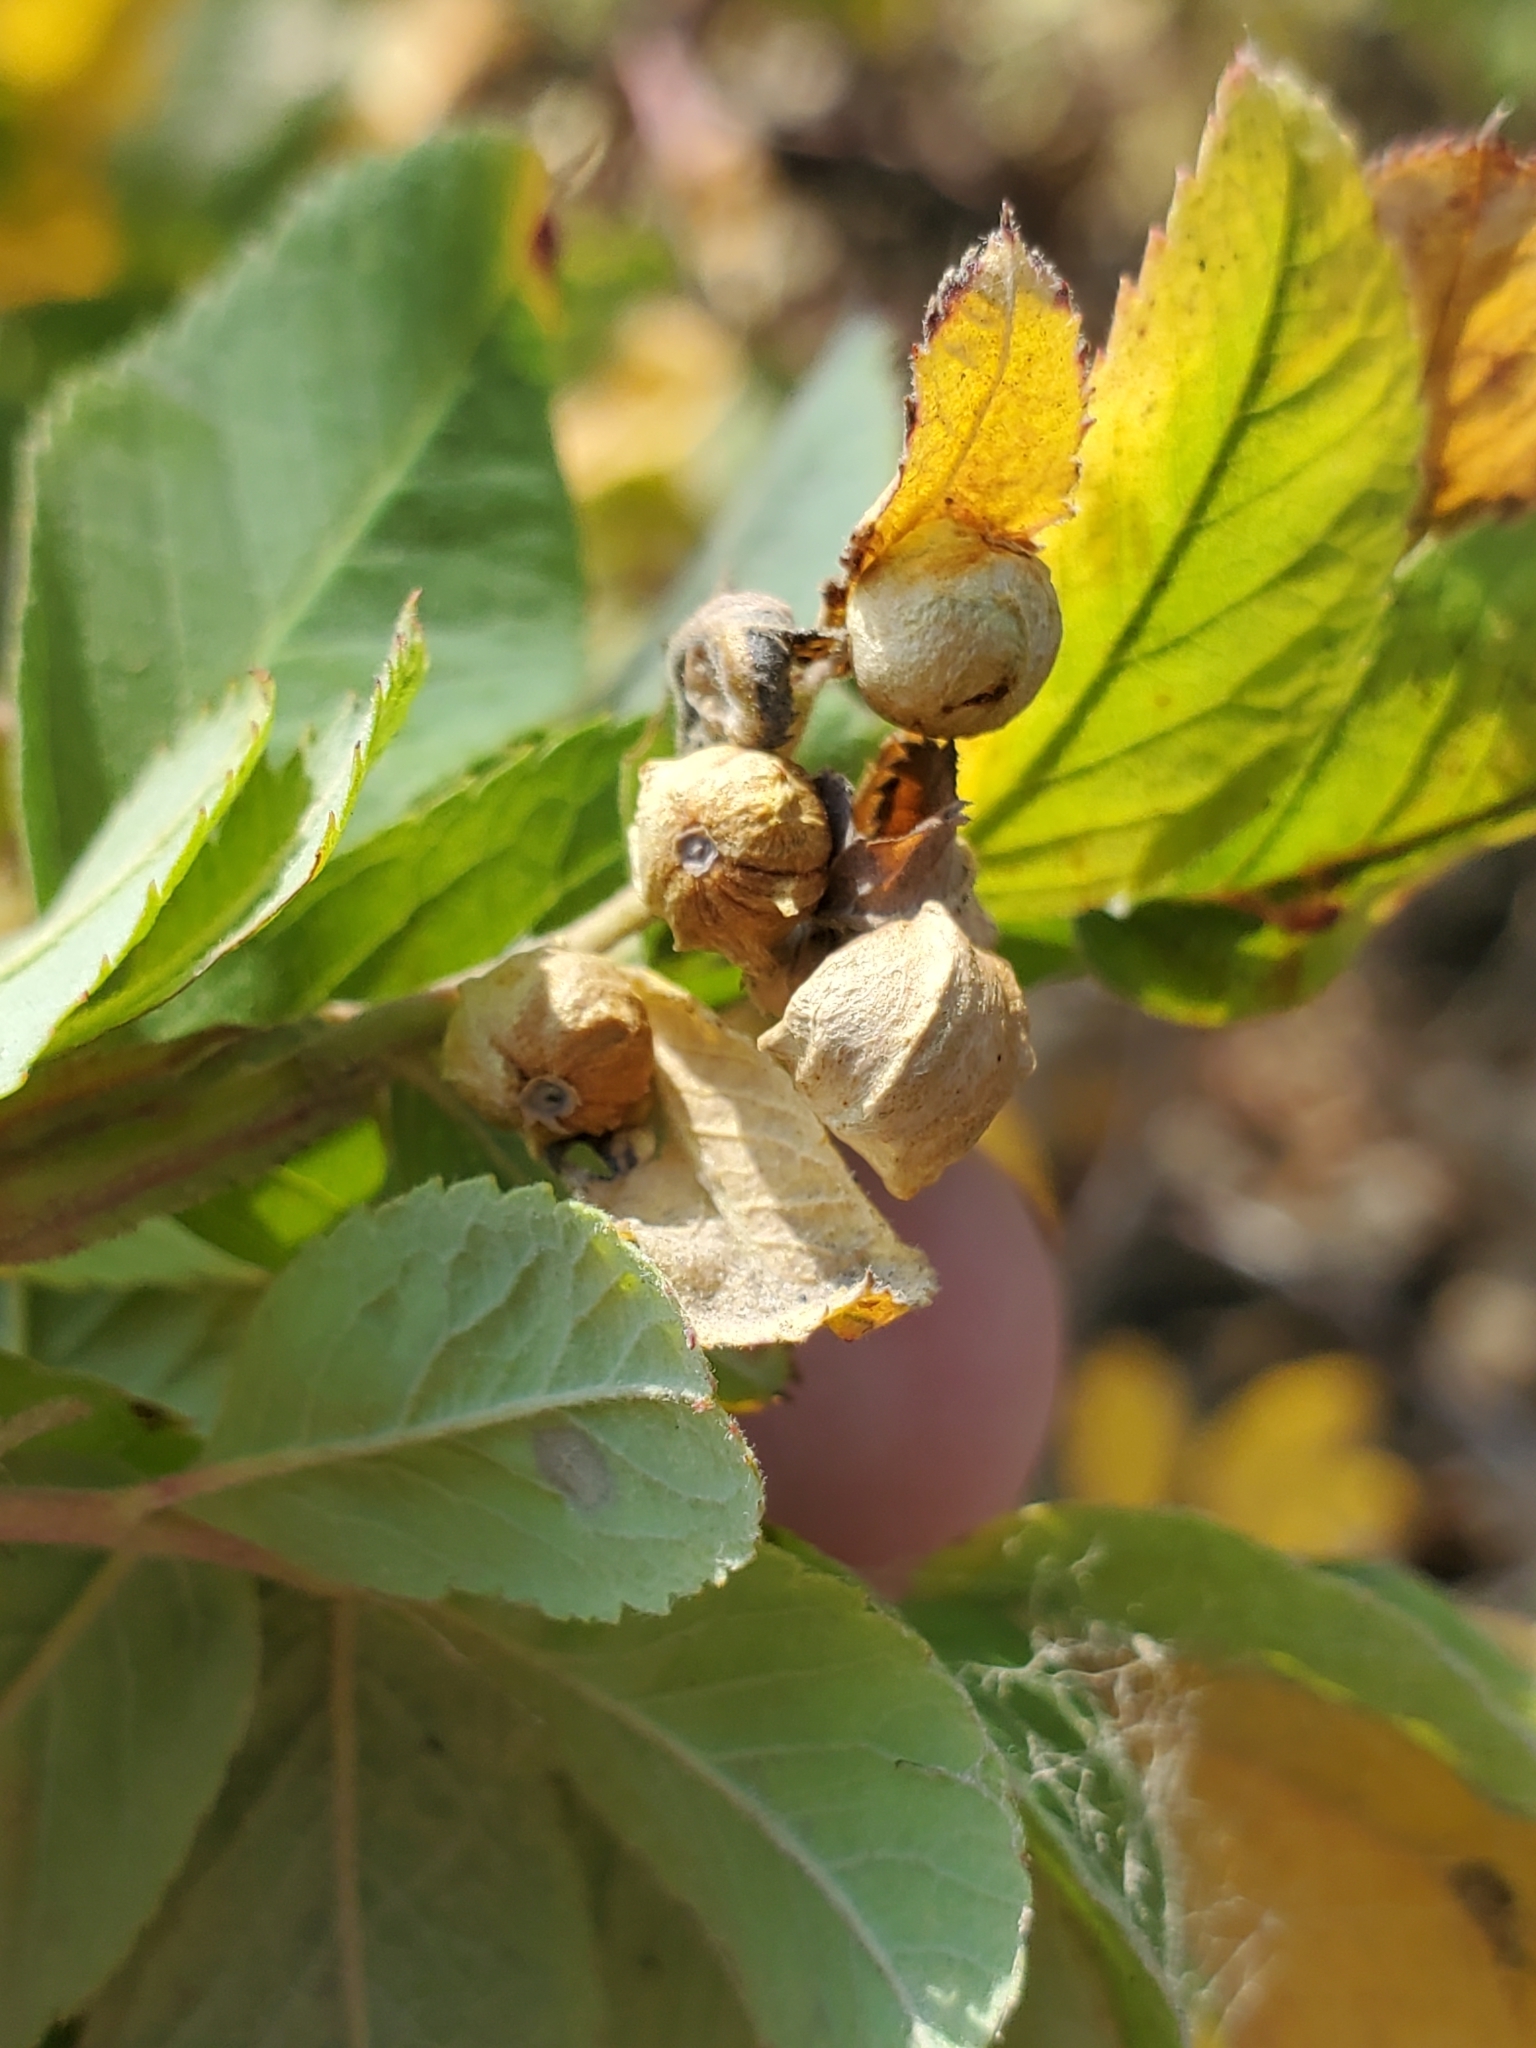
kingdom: Animalia
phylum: Arthropoda
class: Insecta
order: Hymenoptera
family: Cynipidae
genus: Diplolepis
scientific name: Diplolepis gracilis
